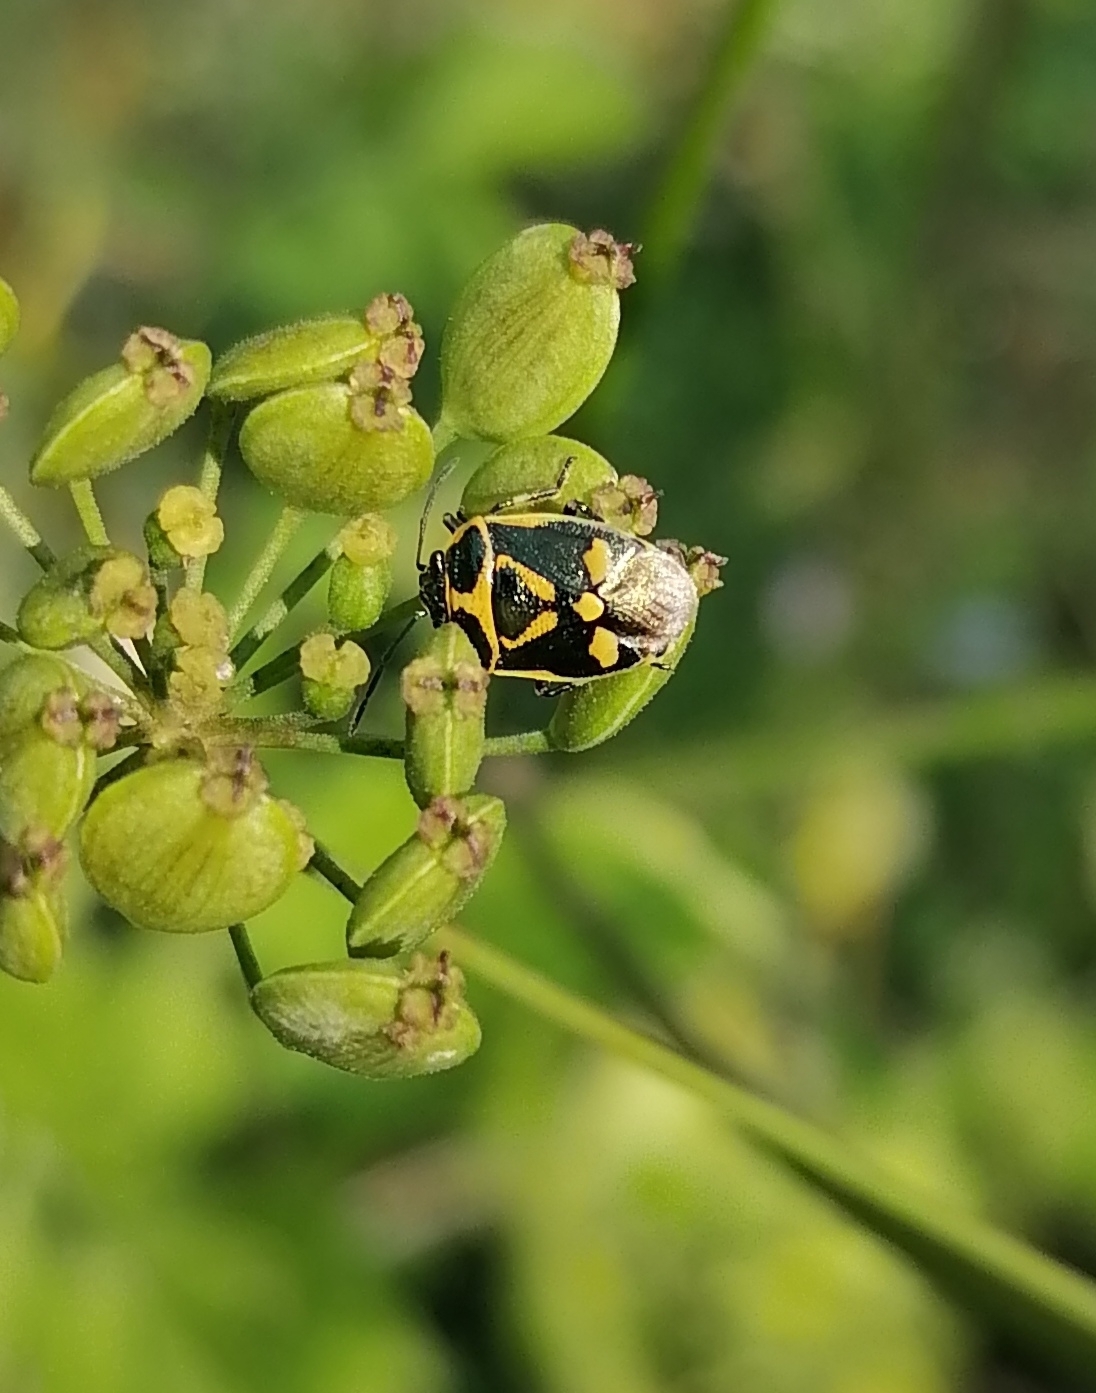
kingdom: Animalia
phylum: Arthropoda
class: Insecta
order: Hemiptera
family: Pentatomidae
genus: Eurydema
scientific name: Eurydema oleracea
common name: Cabbage bug
